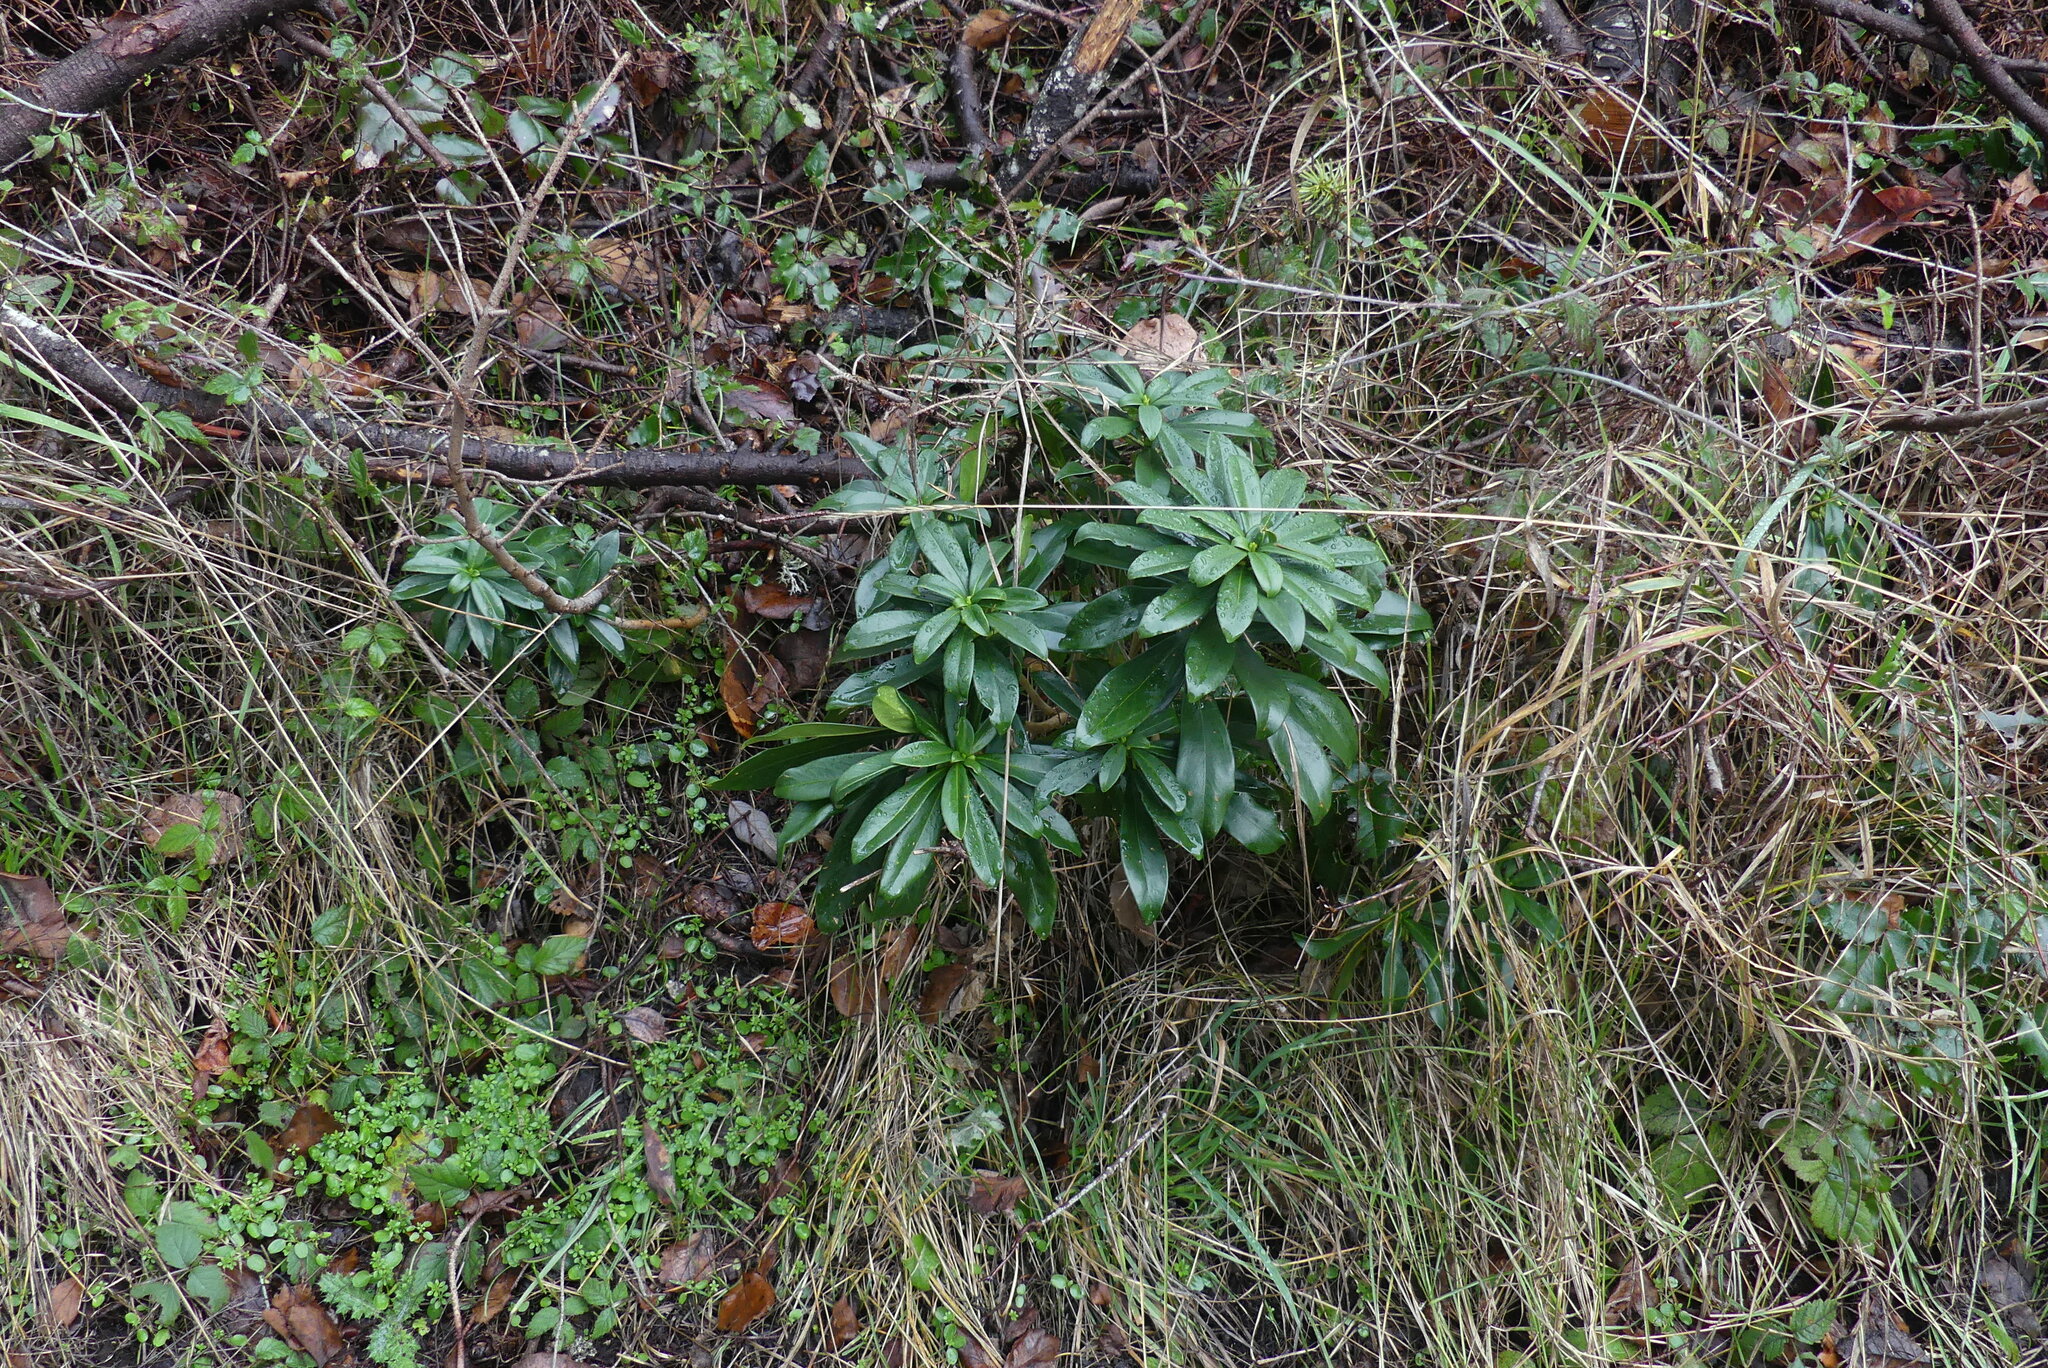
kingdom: Plantae
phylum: Tracheophyta
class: Magnoliopsida
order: Malvales
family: Thymelaeaceae
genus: Daphne
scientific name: Daphne laureola
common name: Spurge-laurel
